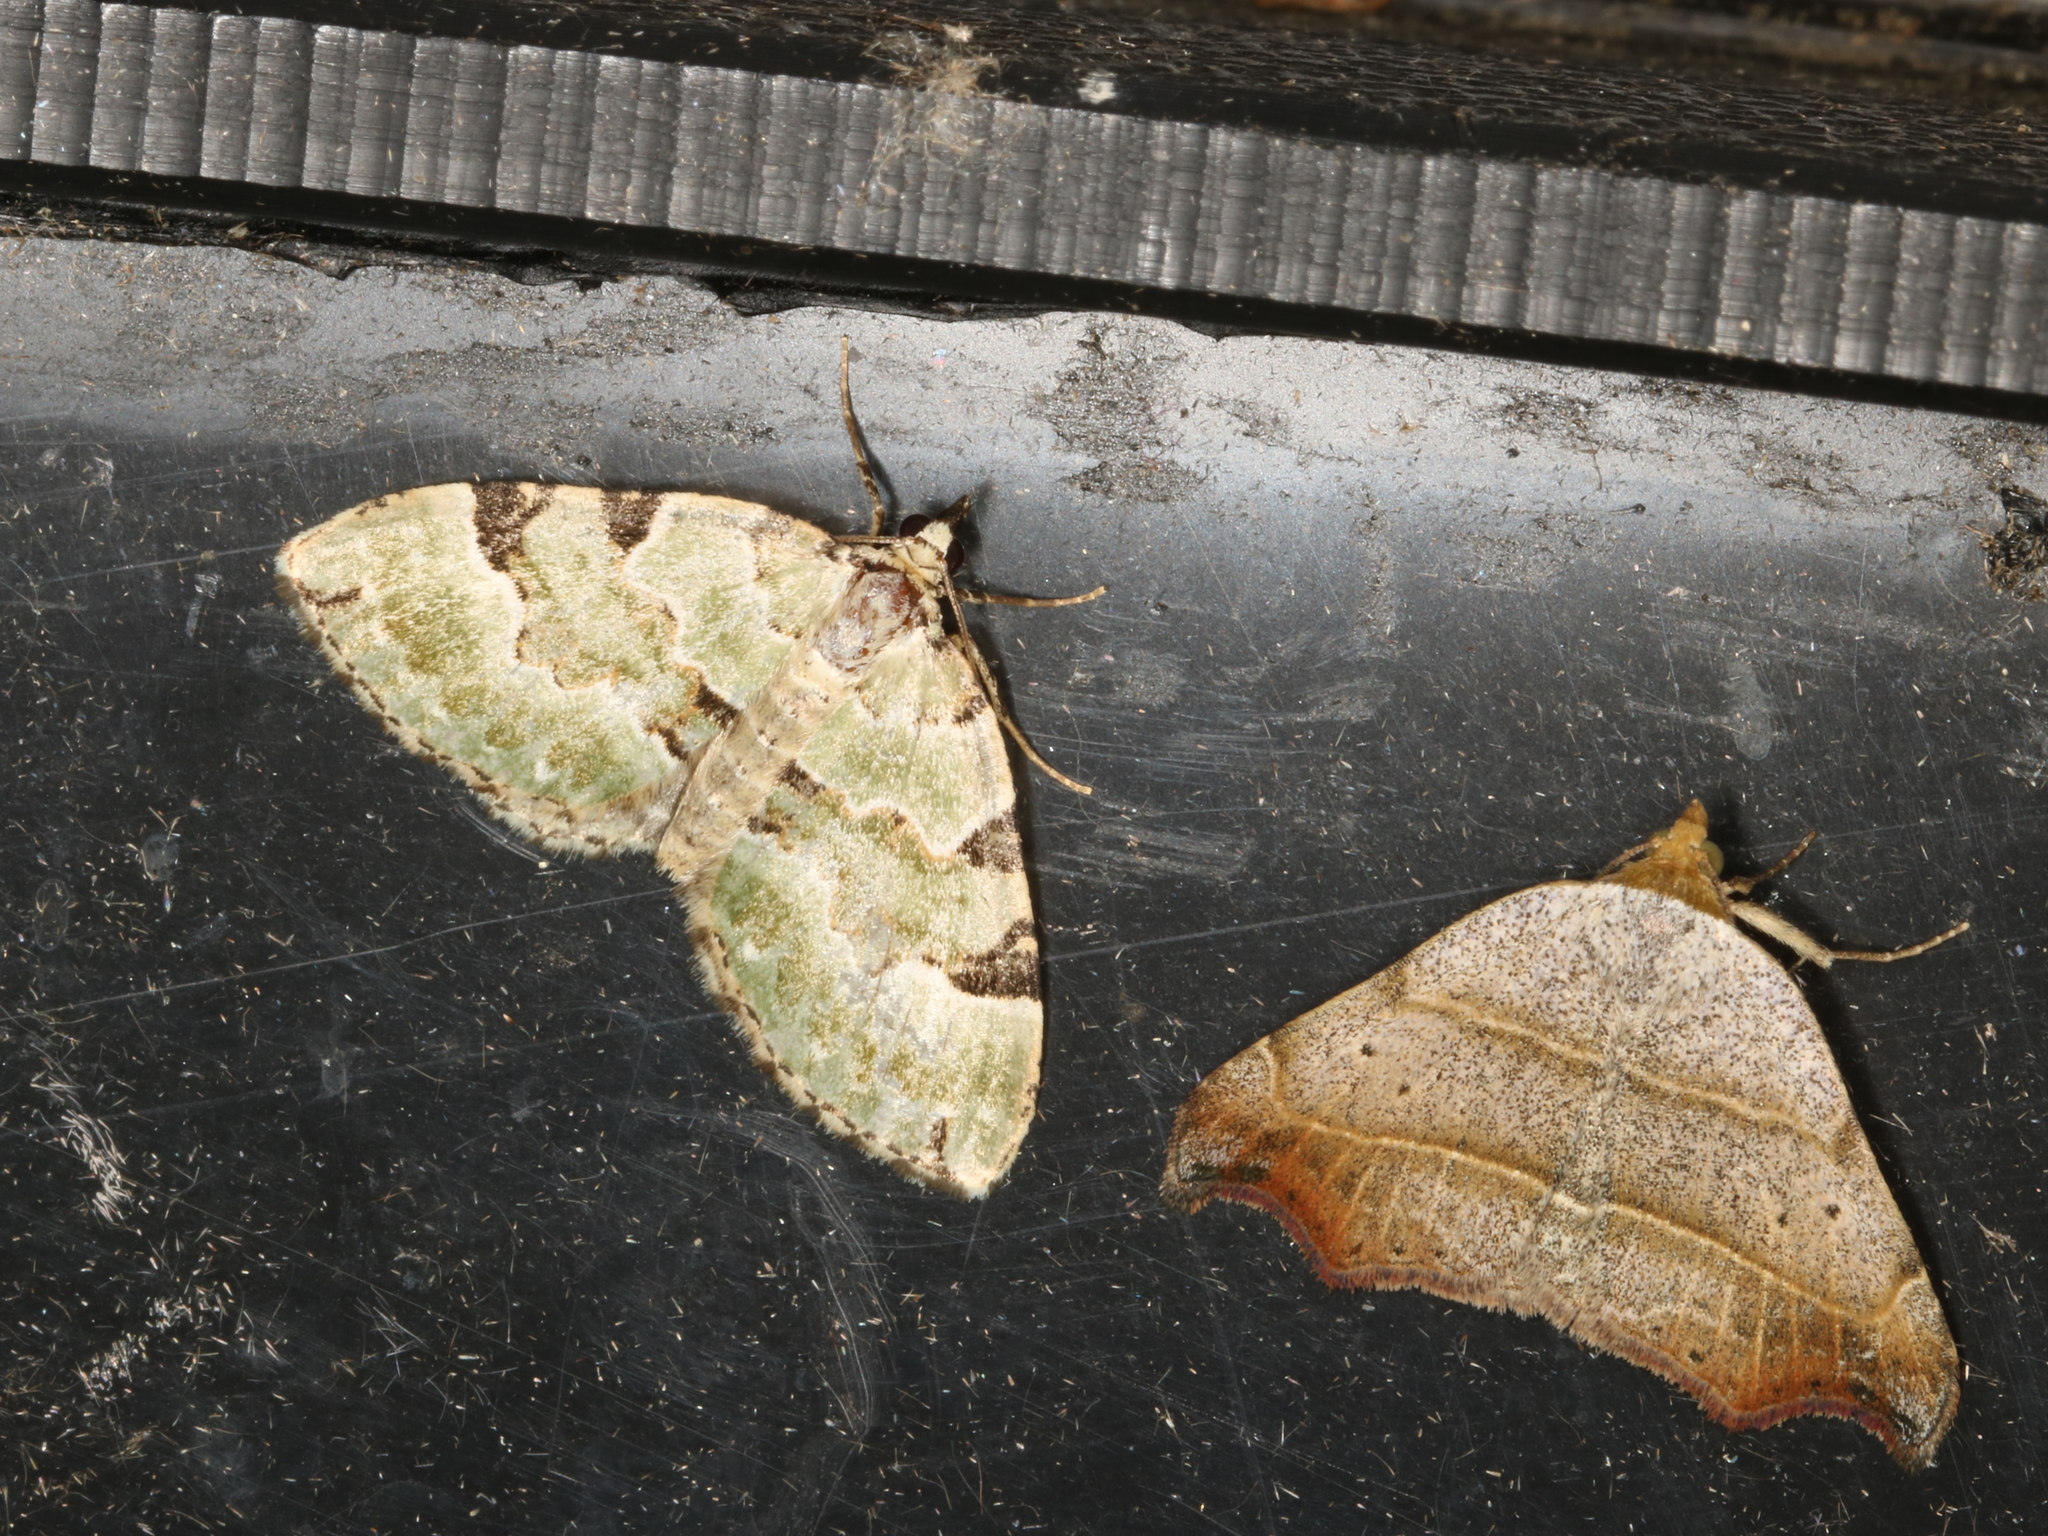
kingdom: Animalia
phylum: Arthropoda
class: Insecta
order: Lepidoptera
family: Erebidae
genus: Laspeyria
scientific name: Laspeyria flexula
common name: Beautiful hook-tip
